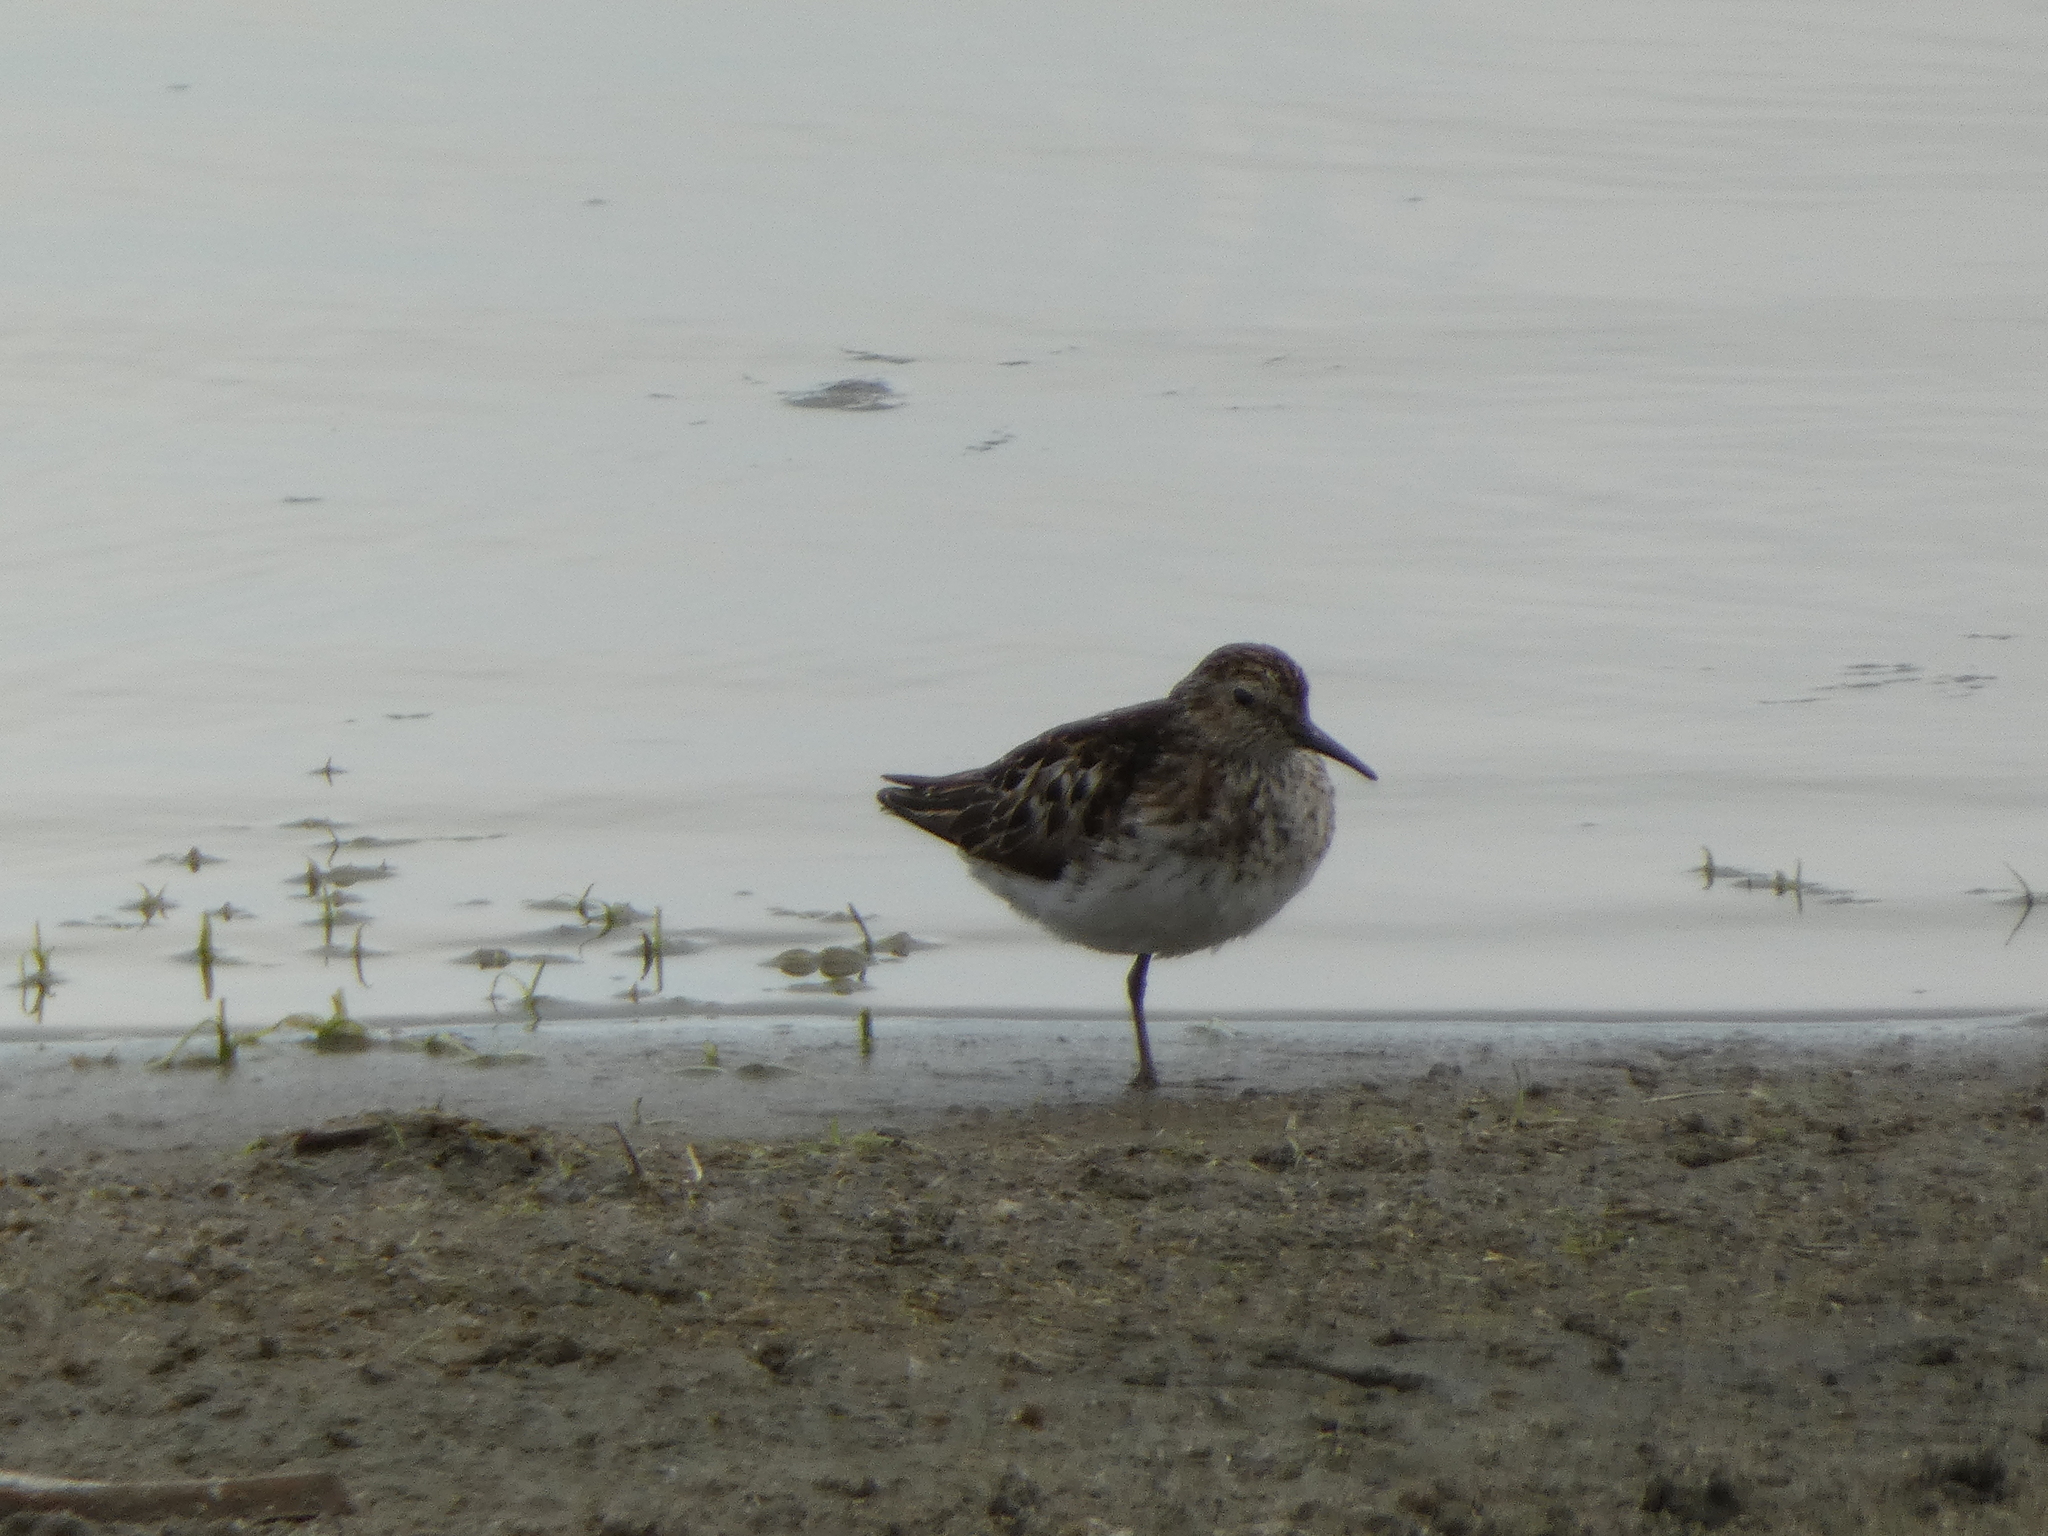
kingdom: Animalia
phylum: Chordata
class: Aves
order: Charadriiformes
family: Scolopacidae
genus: Calidris
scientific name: Calidris minutilla
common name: Least sandpiper
